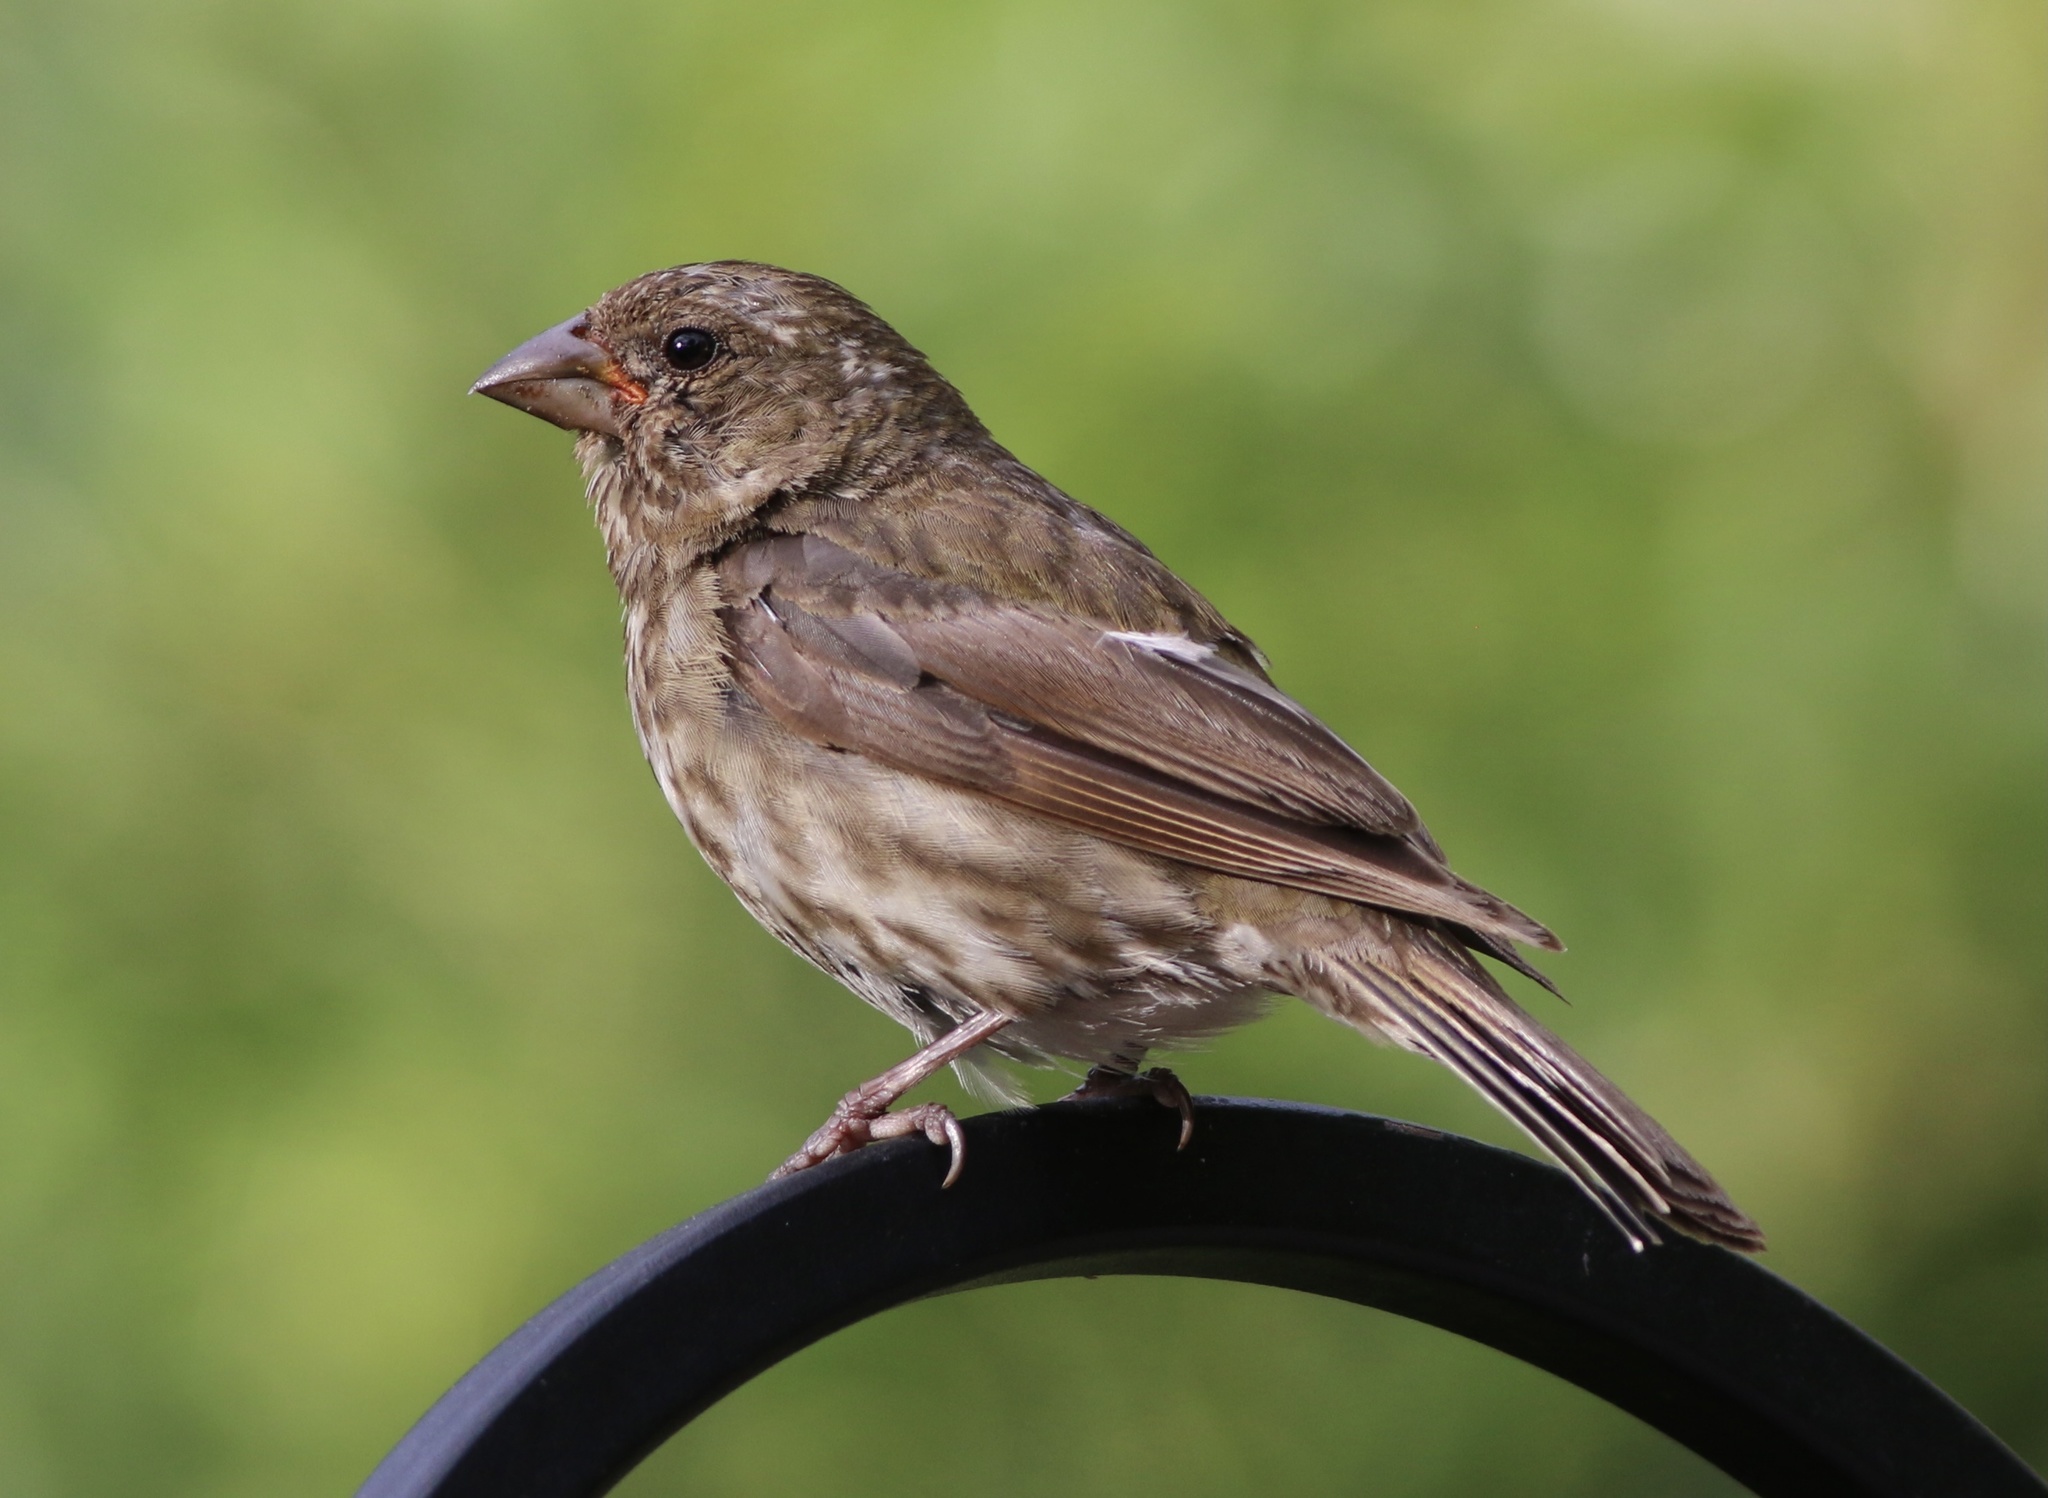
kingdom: Animalia
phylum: Chordata
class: Aves
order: Passeriformes
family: Fringillidae
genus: Haemorhous
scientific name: Haemorhous purpureus
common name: Purple finch
